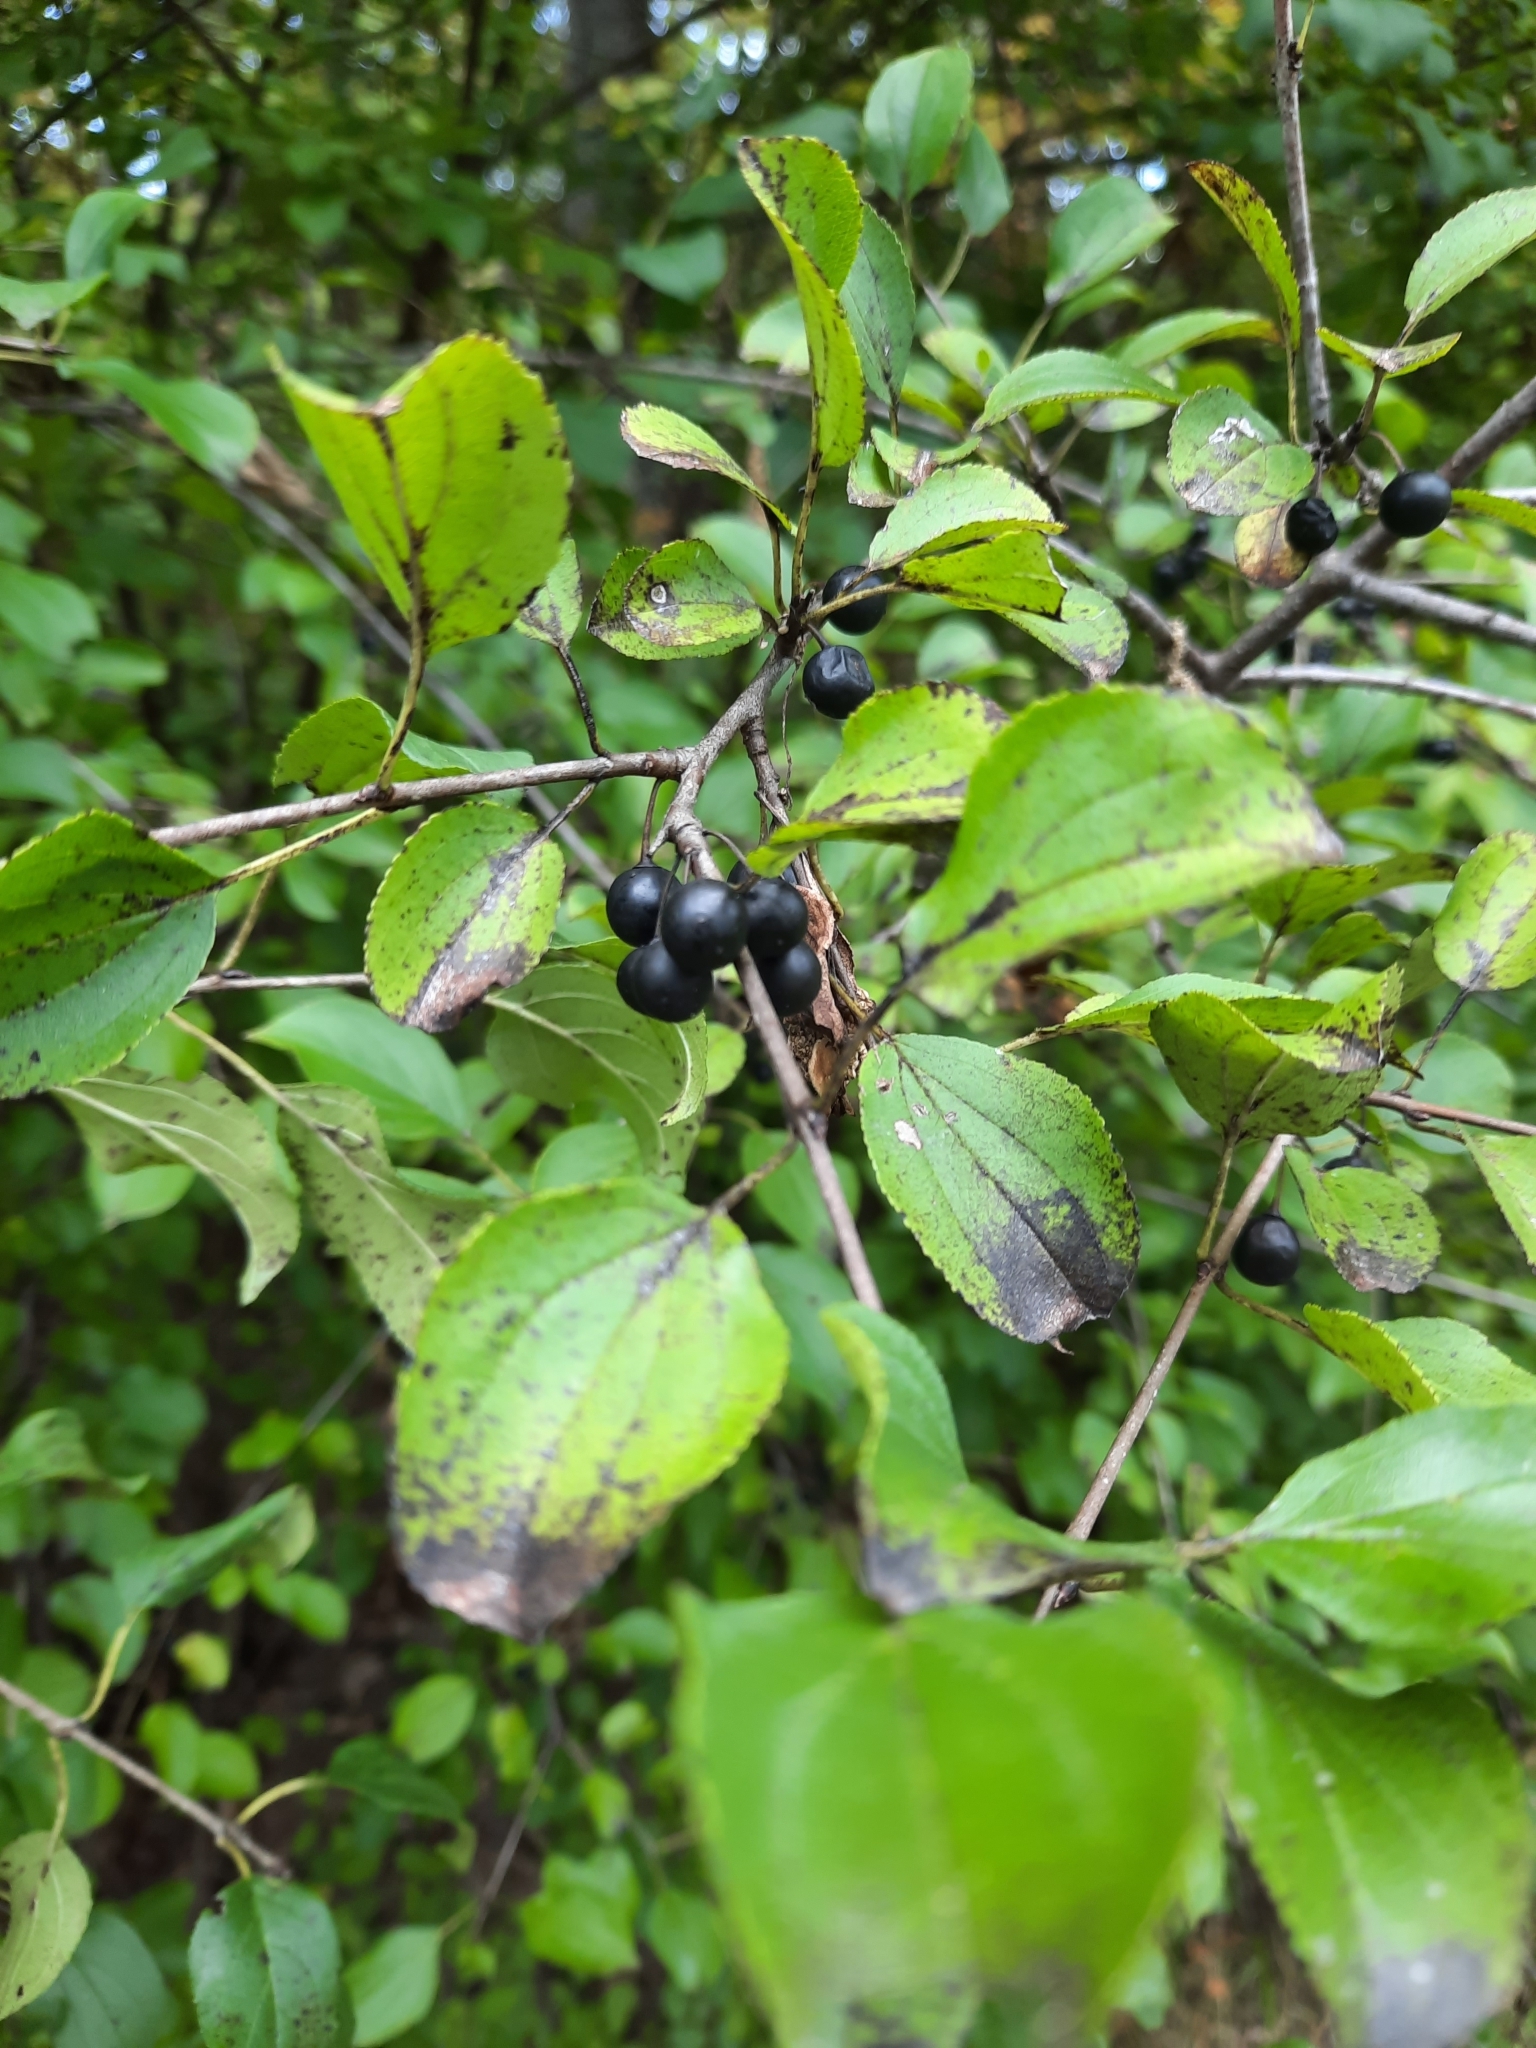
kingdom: Plantae
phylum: Tracheophyta
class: Magnoliopsida
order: Rosales
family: Rhamnaceae
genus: Rhamnus
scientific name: Rhamnus cathartica
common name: Common buckthorn
